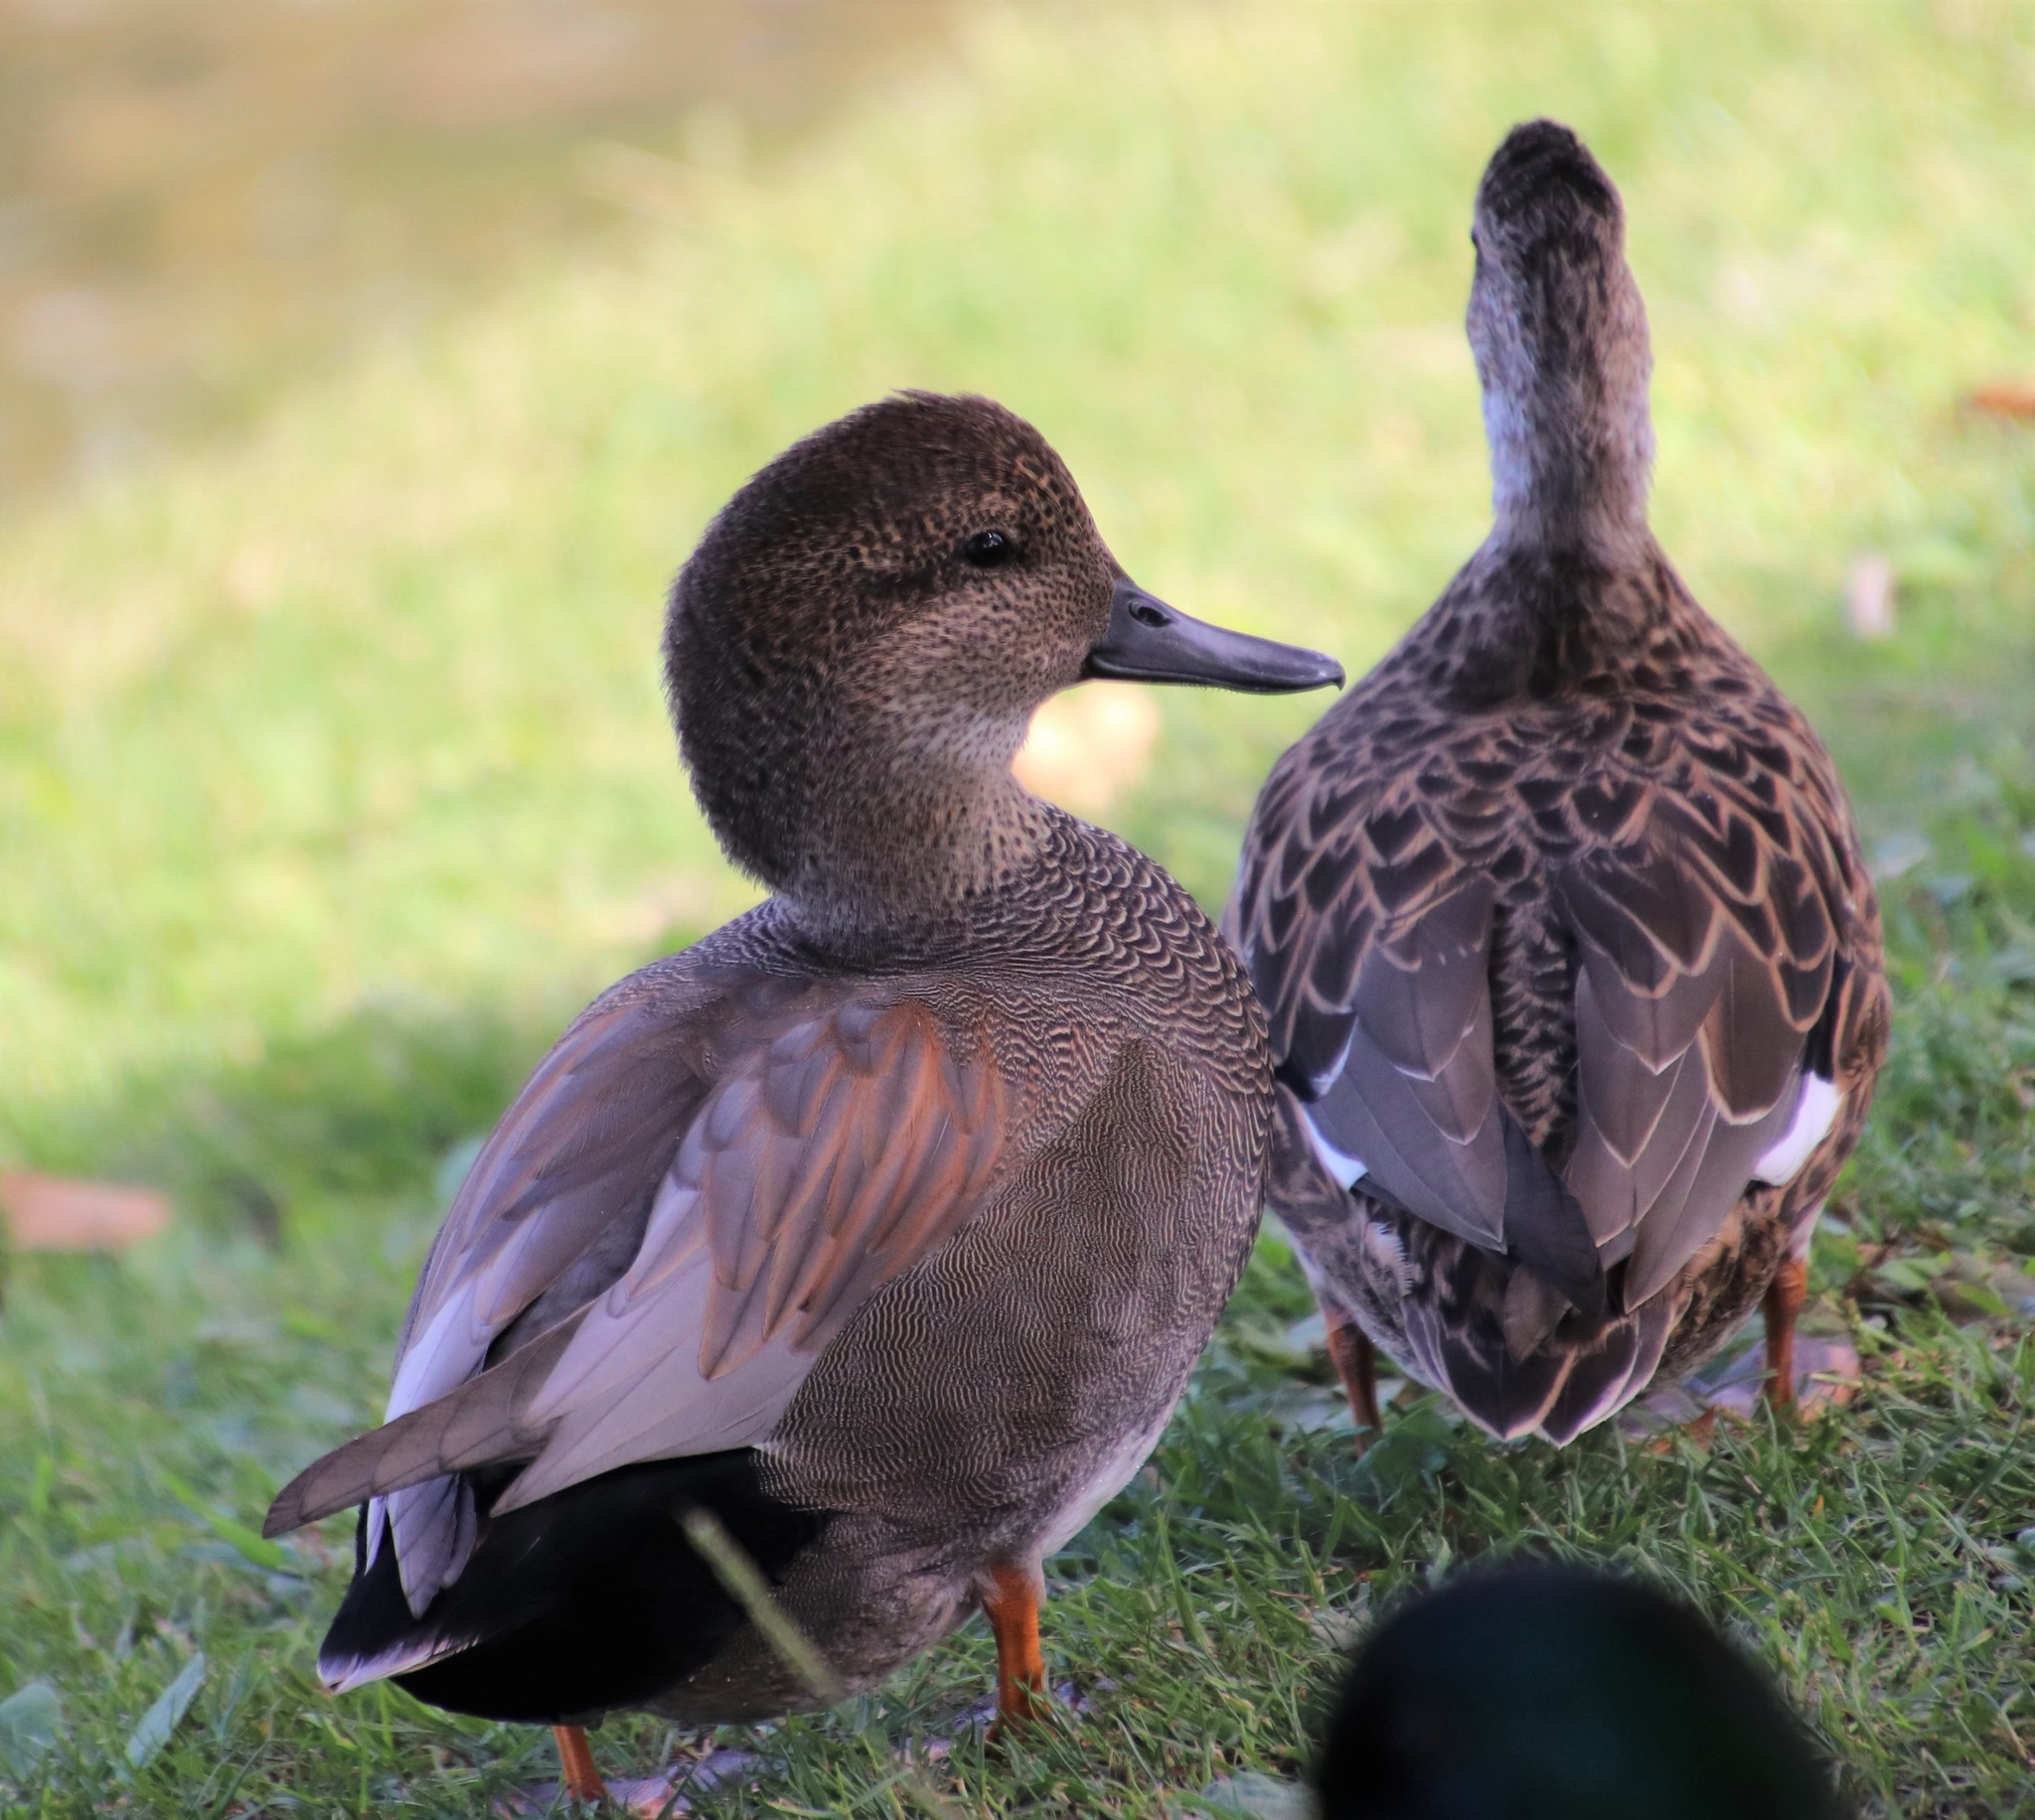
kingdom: Animalia
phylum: Chordata
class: Aves
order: Anseriformes
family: Anatidae
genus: Mareca
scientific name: Mareca strepera
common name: Gadwall
